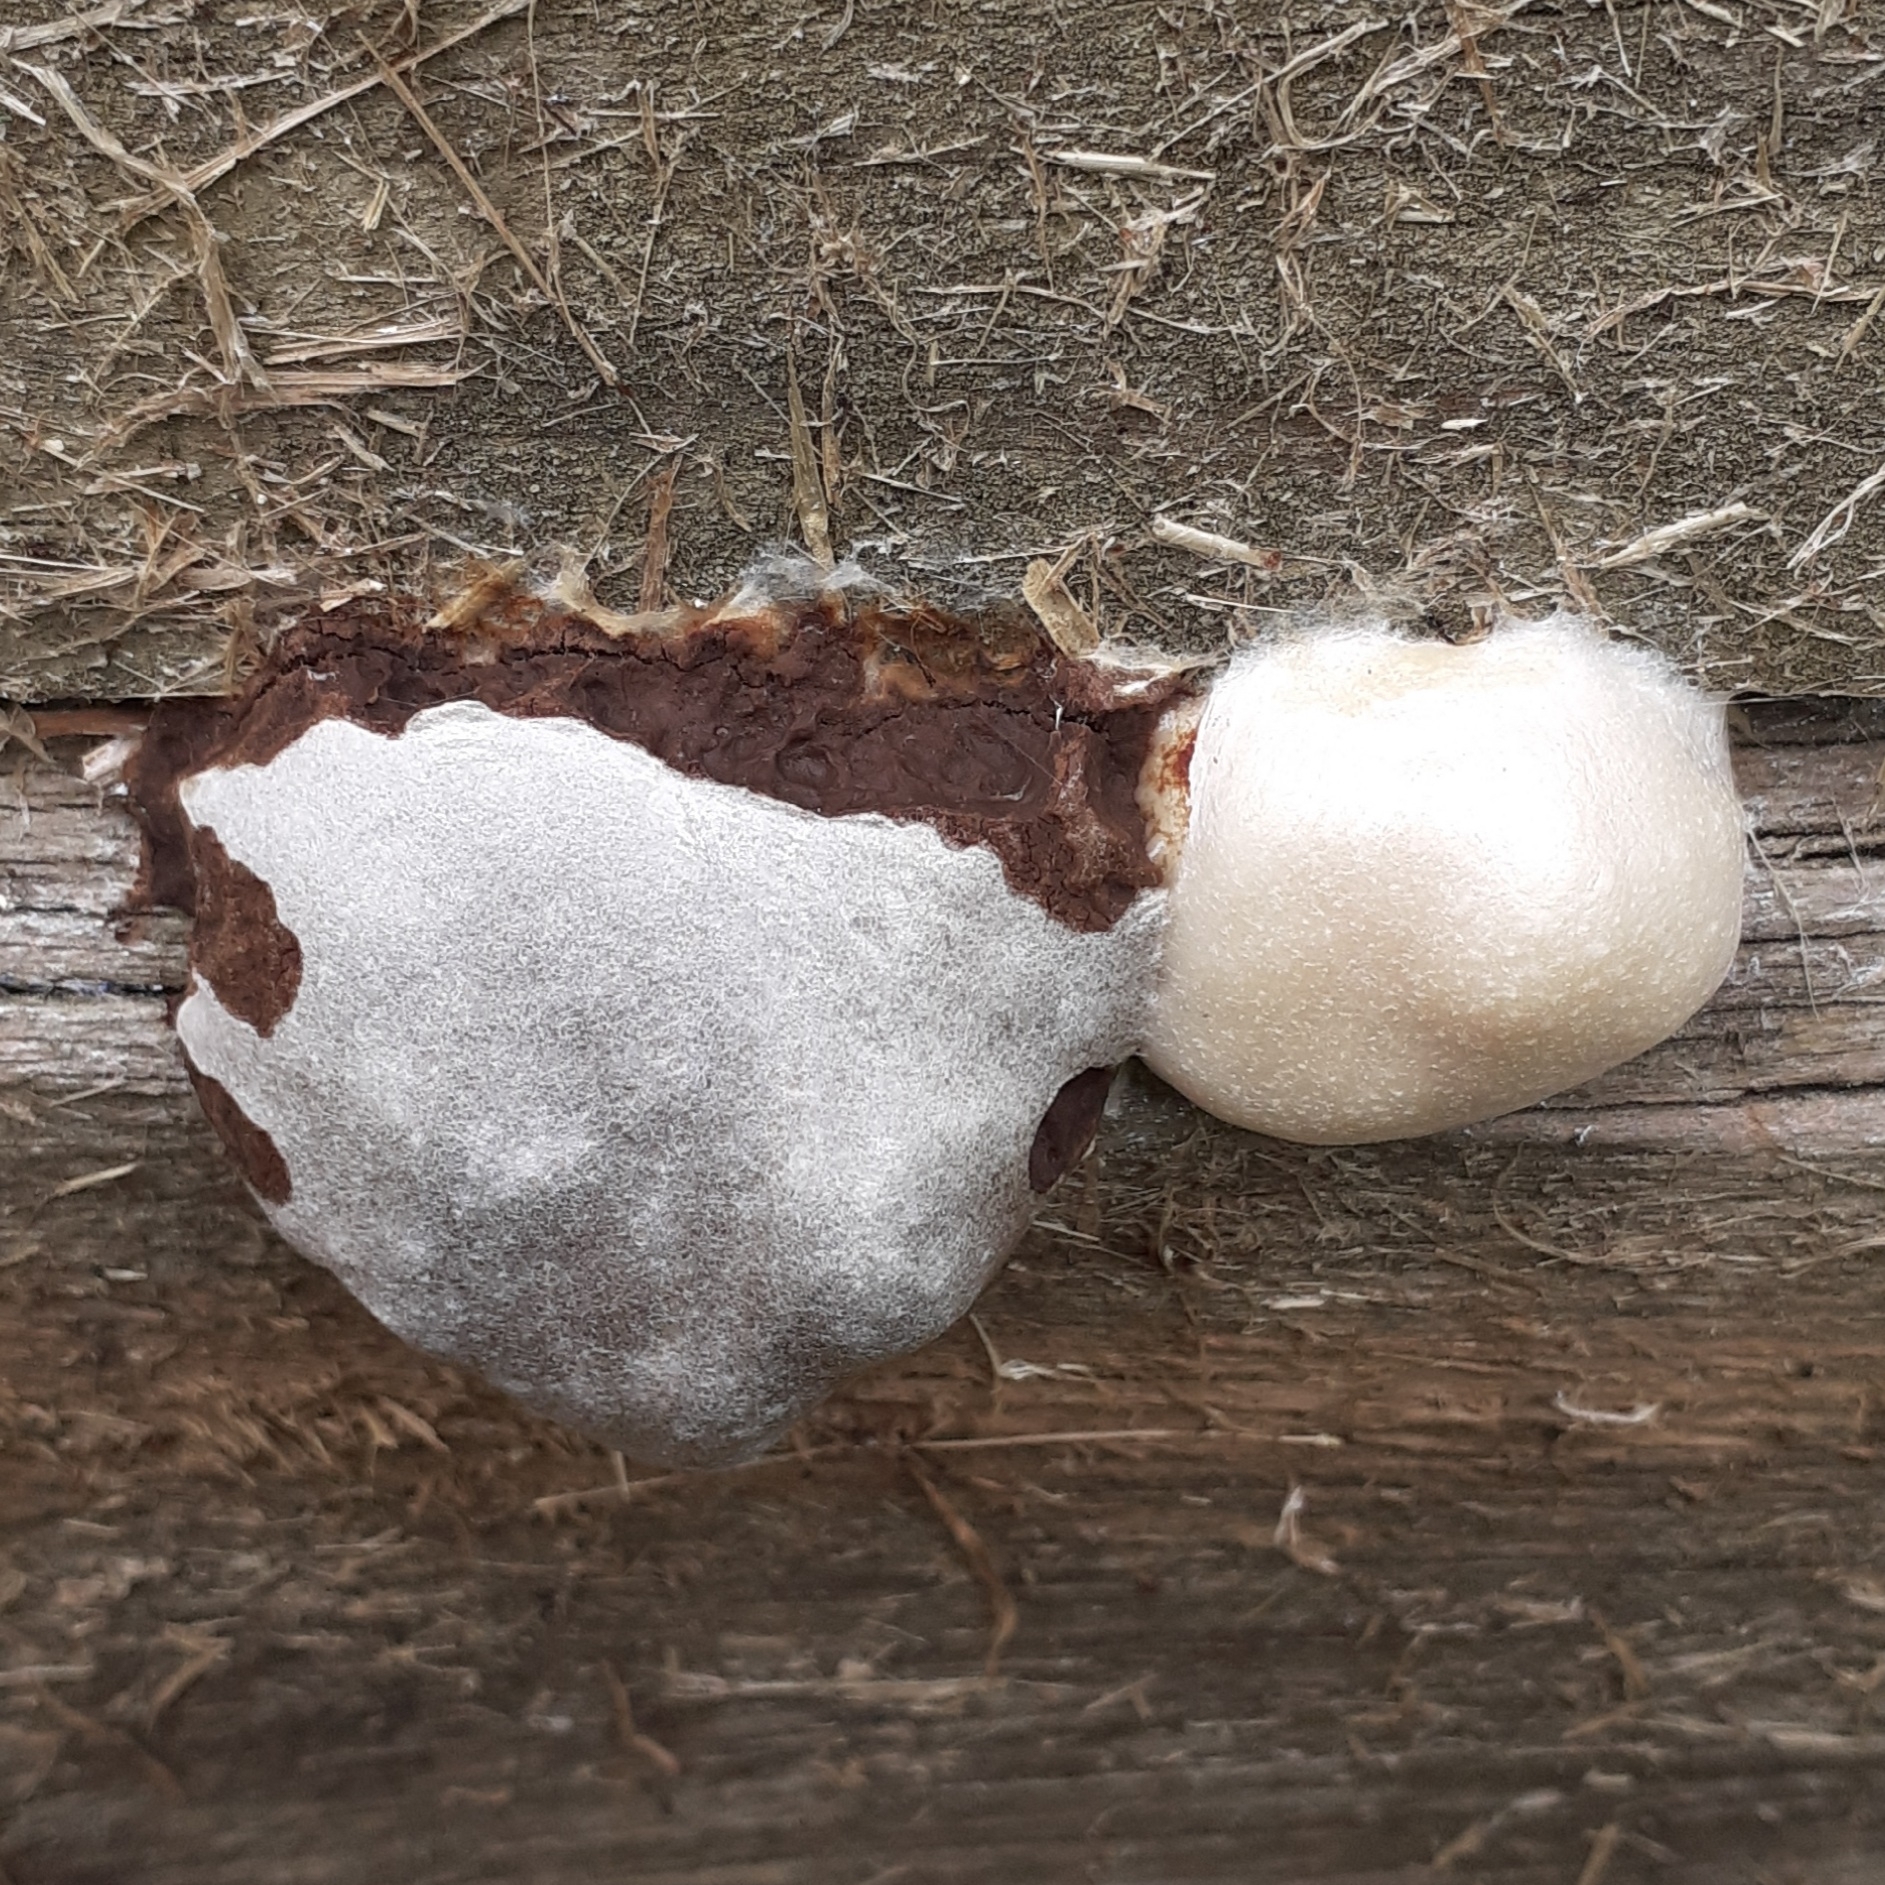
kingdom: Protozoa
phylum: Mycetozoa
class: Myxomycetes
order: Cribrariales
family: Tubiferaceae
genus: Reticularia
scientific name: Reticularia lycoperdon
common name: False puffball
